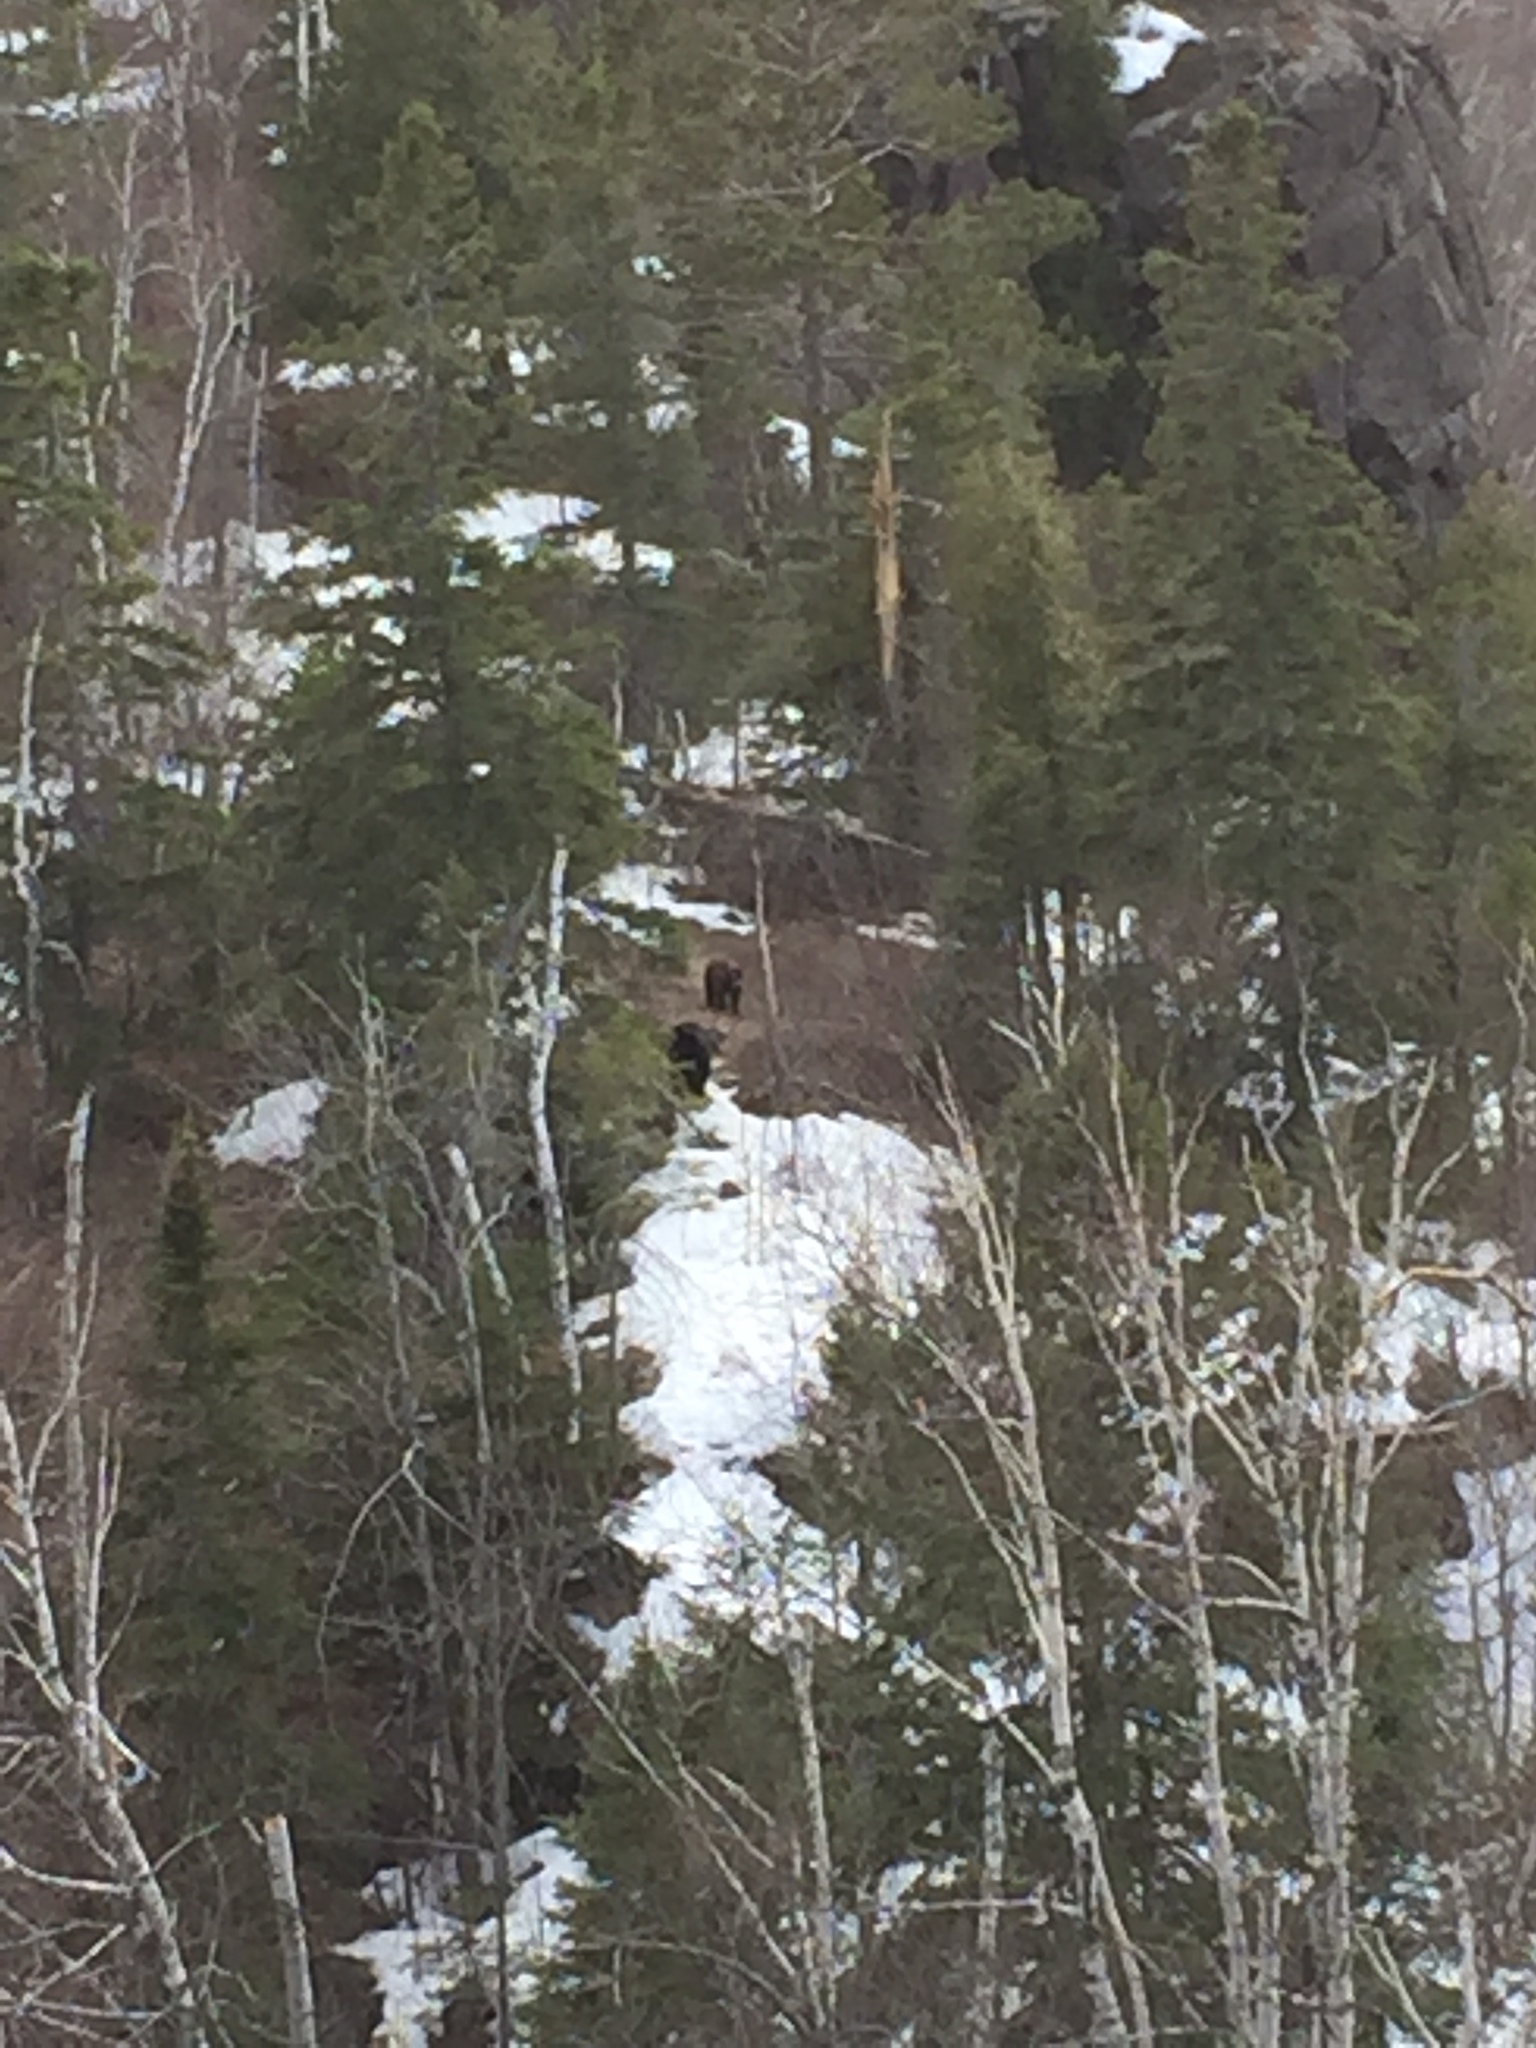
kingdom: Animalia
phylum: Chordata
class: Mammalia
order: Carnivora
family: Ursidae
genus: Ursus
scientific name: Ursus americanus
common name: American black bear
